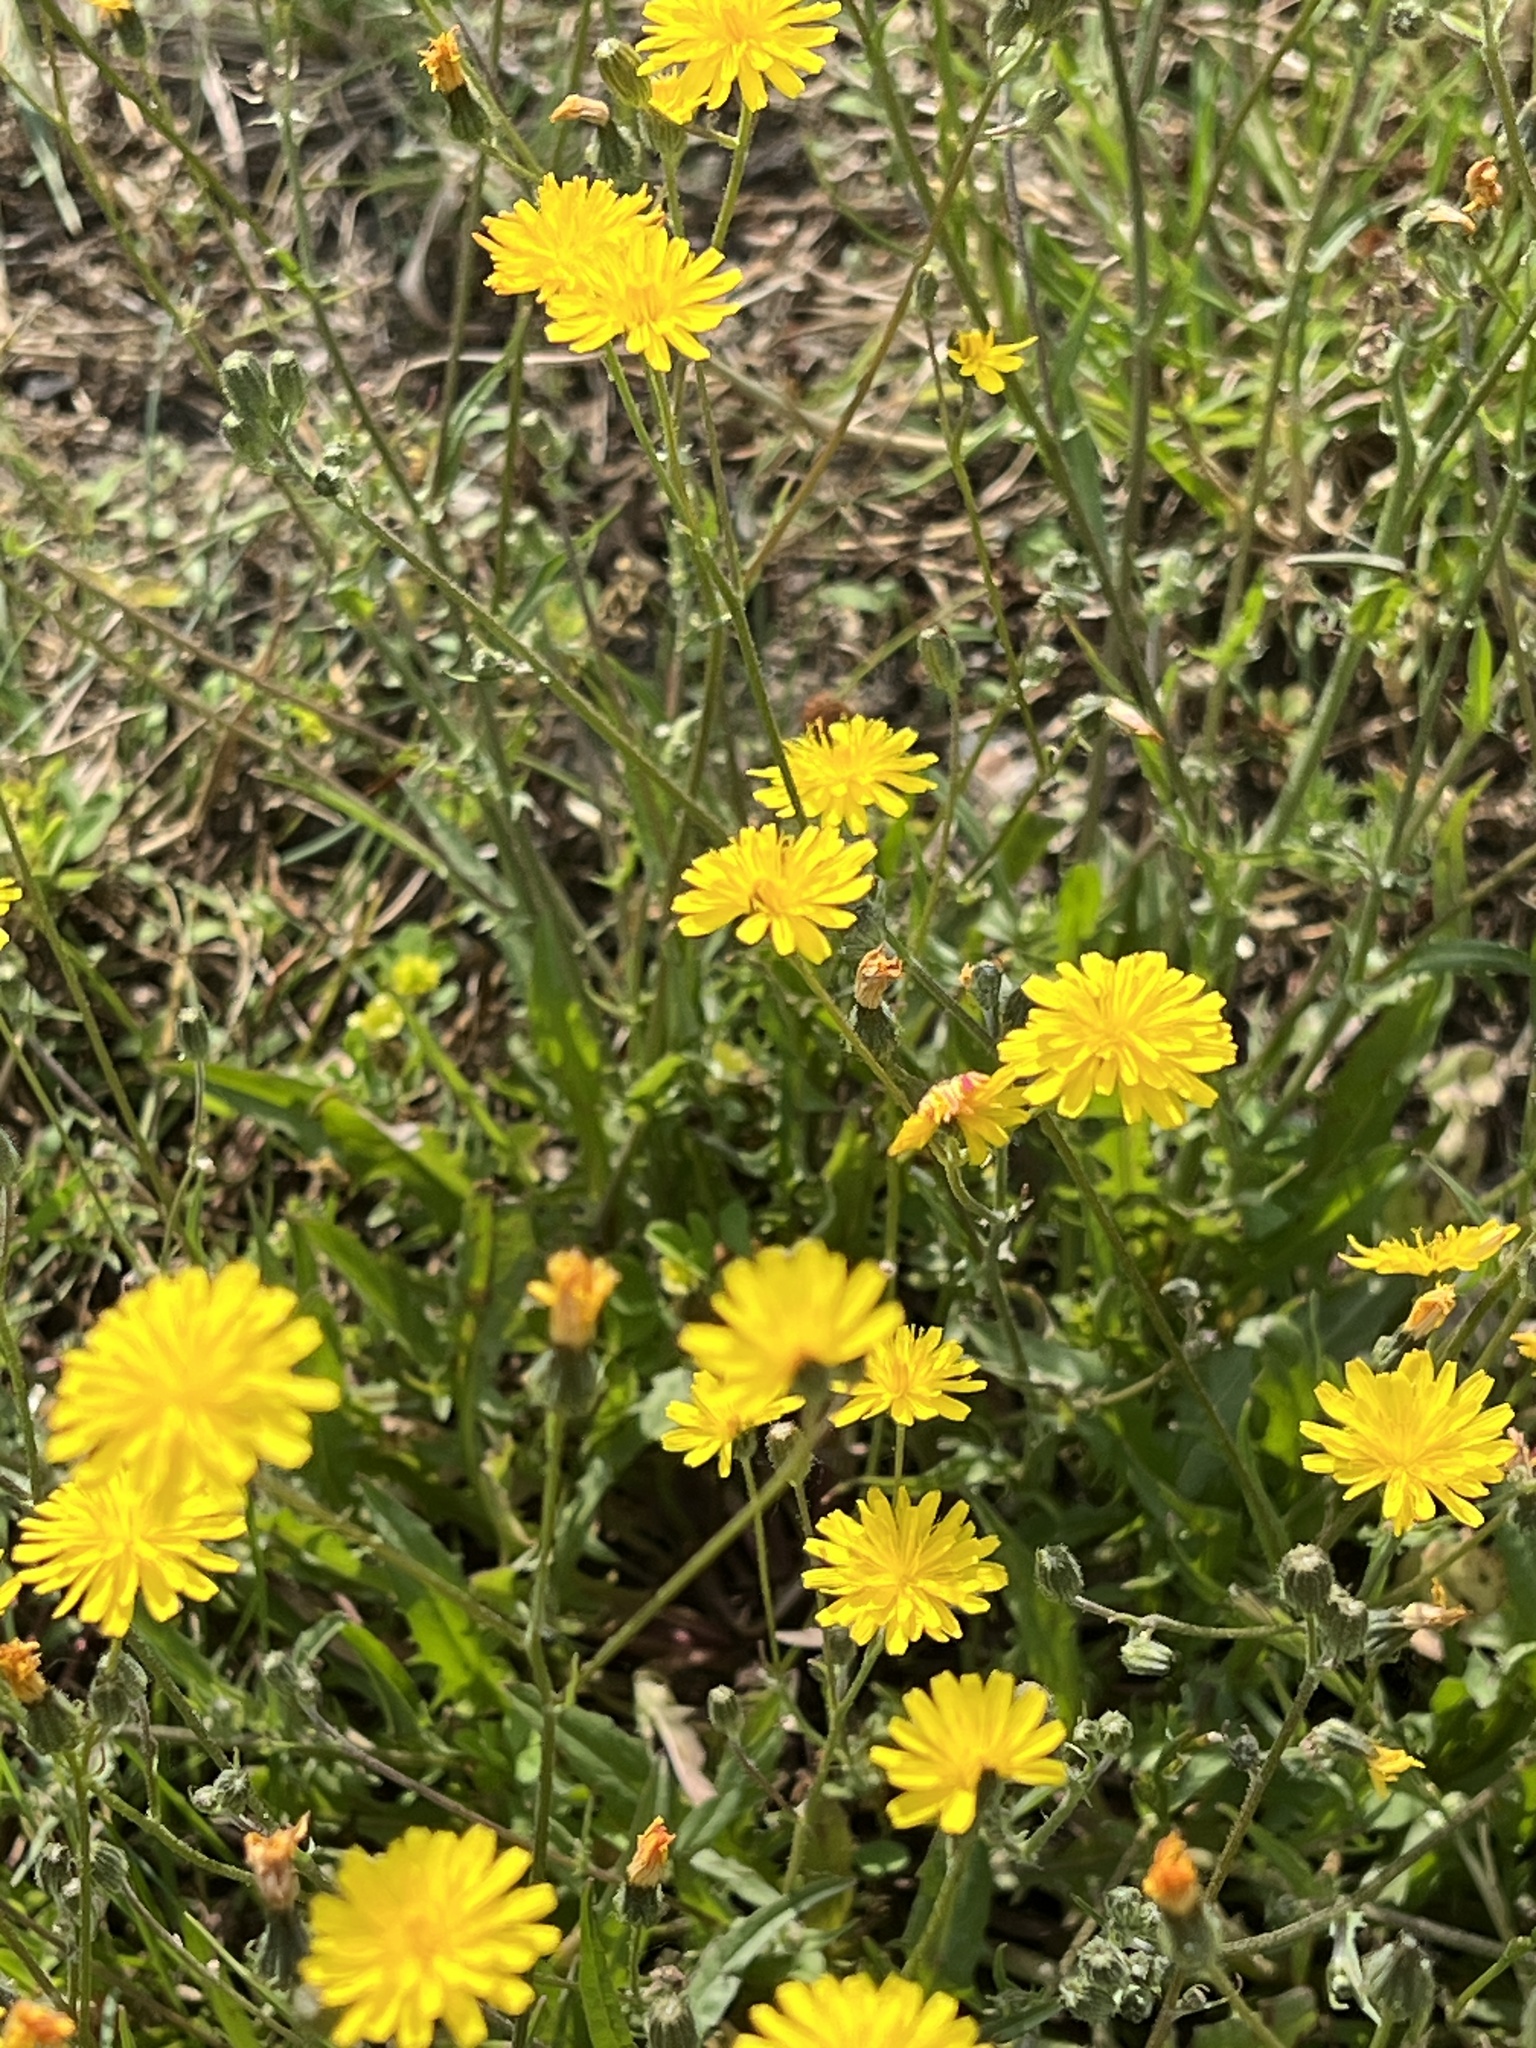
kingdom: Plantae
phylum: Tracheophyta
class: Magnoliopsida
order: Asterales
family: Asteraceae
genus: Crepis
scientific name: Crepis capillaris
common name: Smooth hawksbeard
